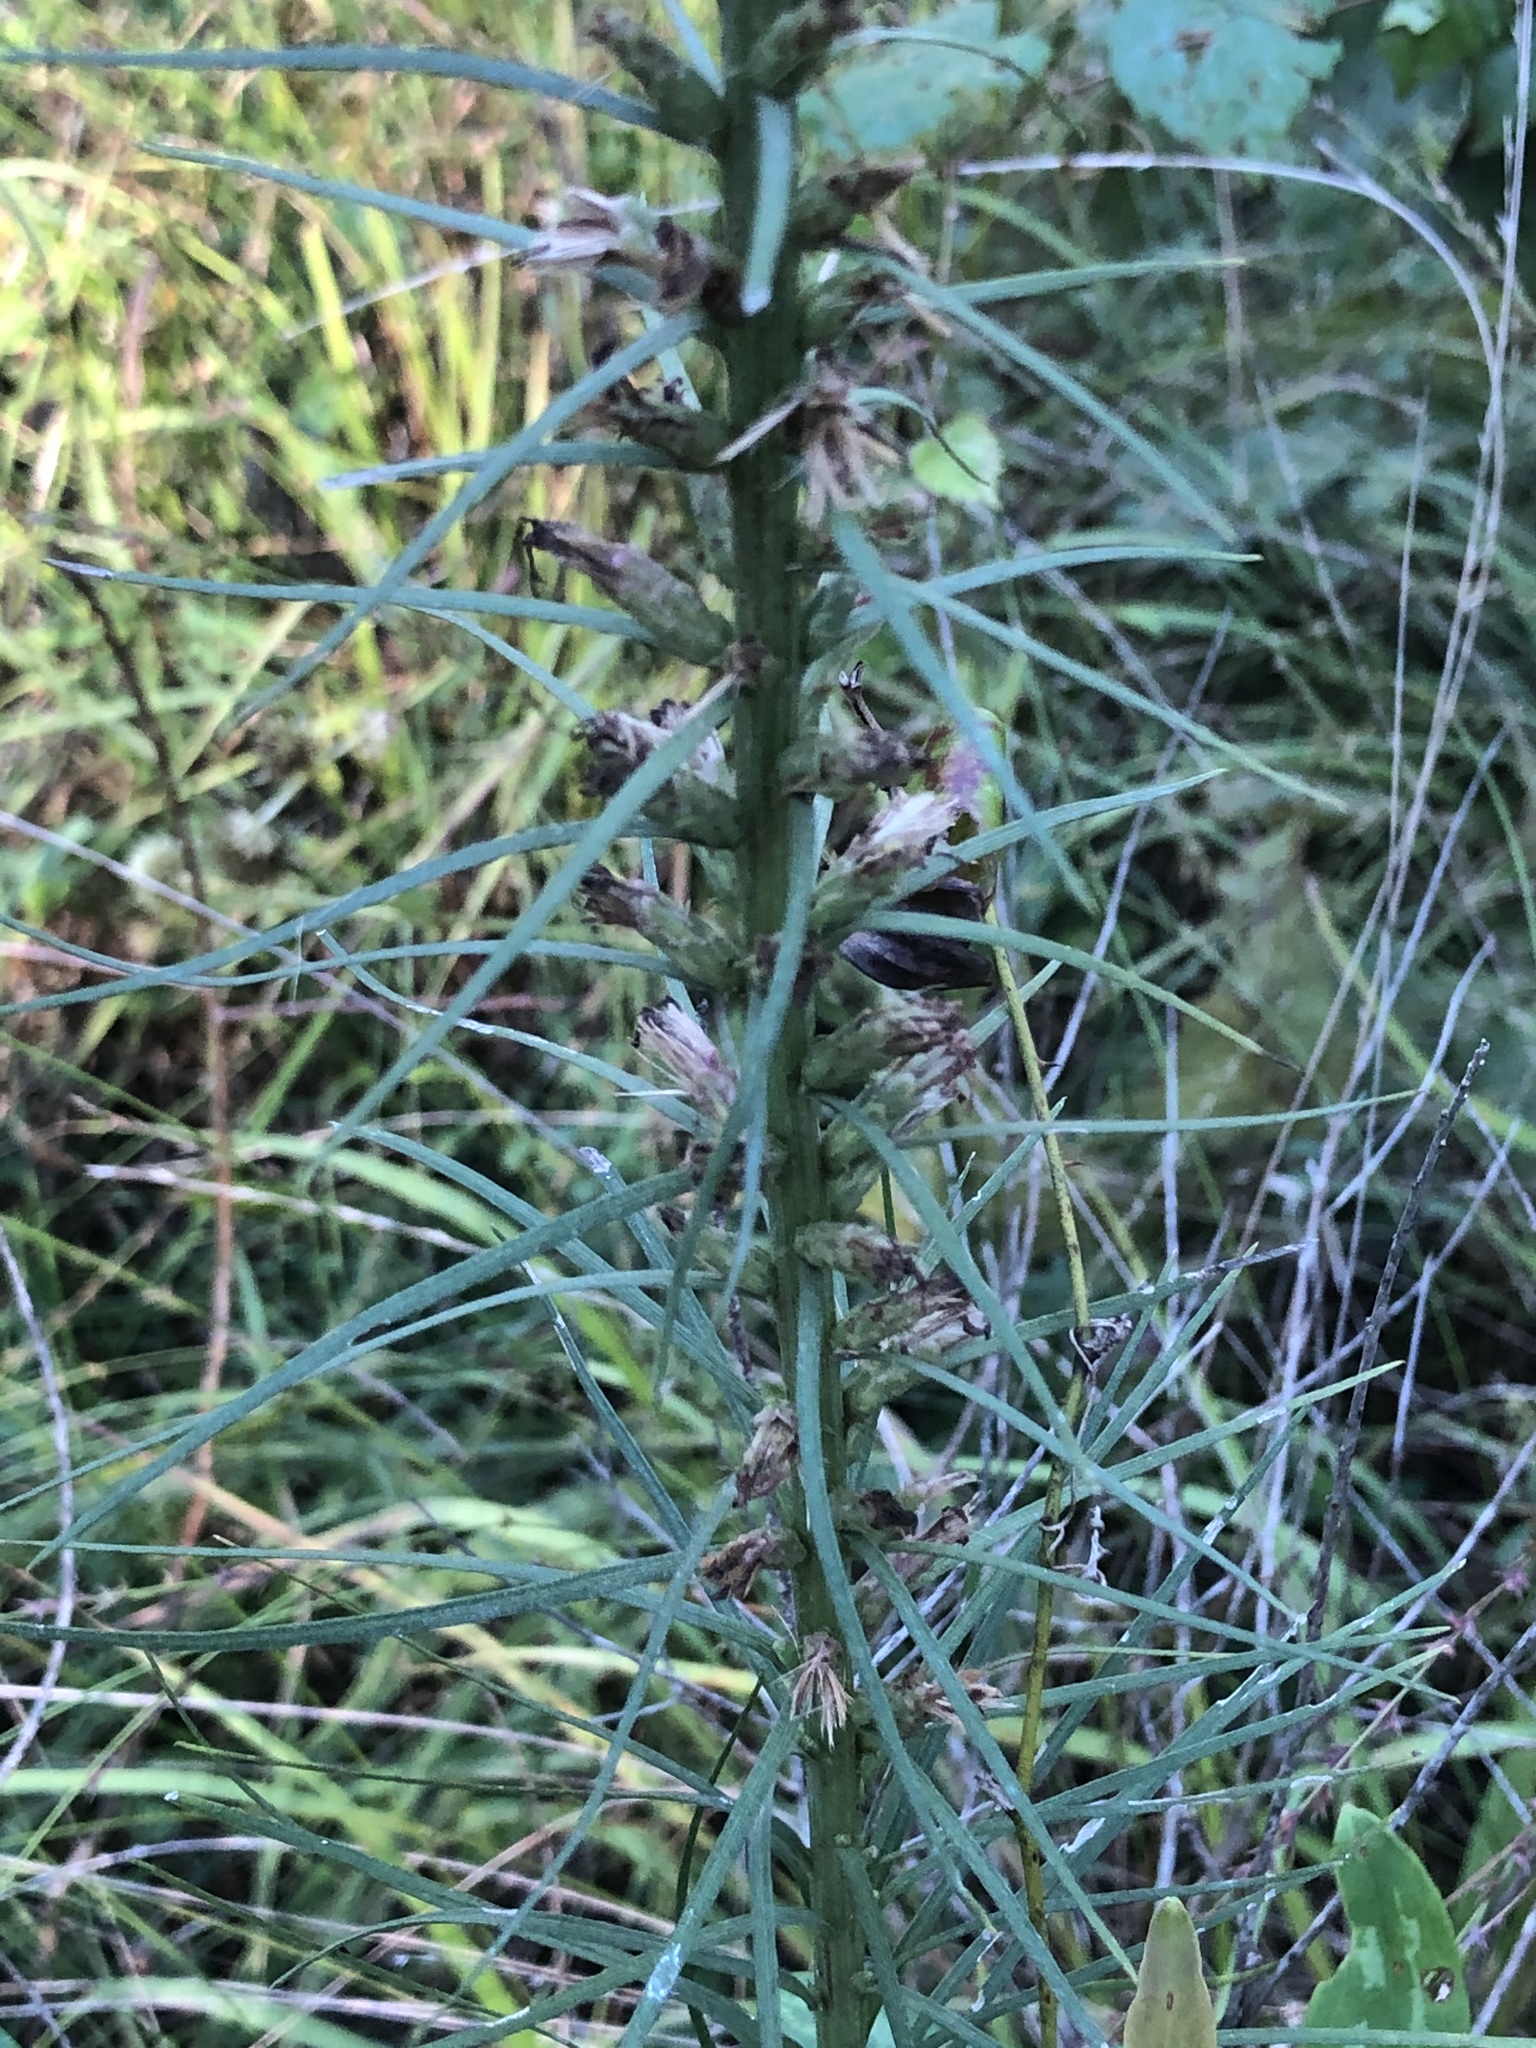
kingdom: Plantae
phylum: Tracheophyta
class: Magnoliopsida
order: Asterales
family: Asteraceae
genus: Liatris
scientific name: Liatris spicata
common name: Florist gayfeather
